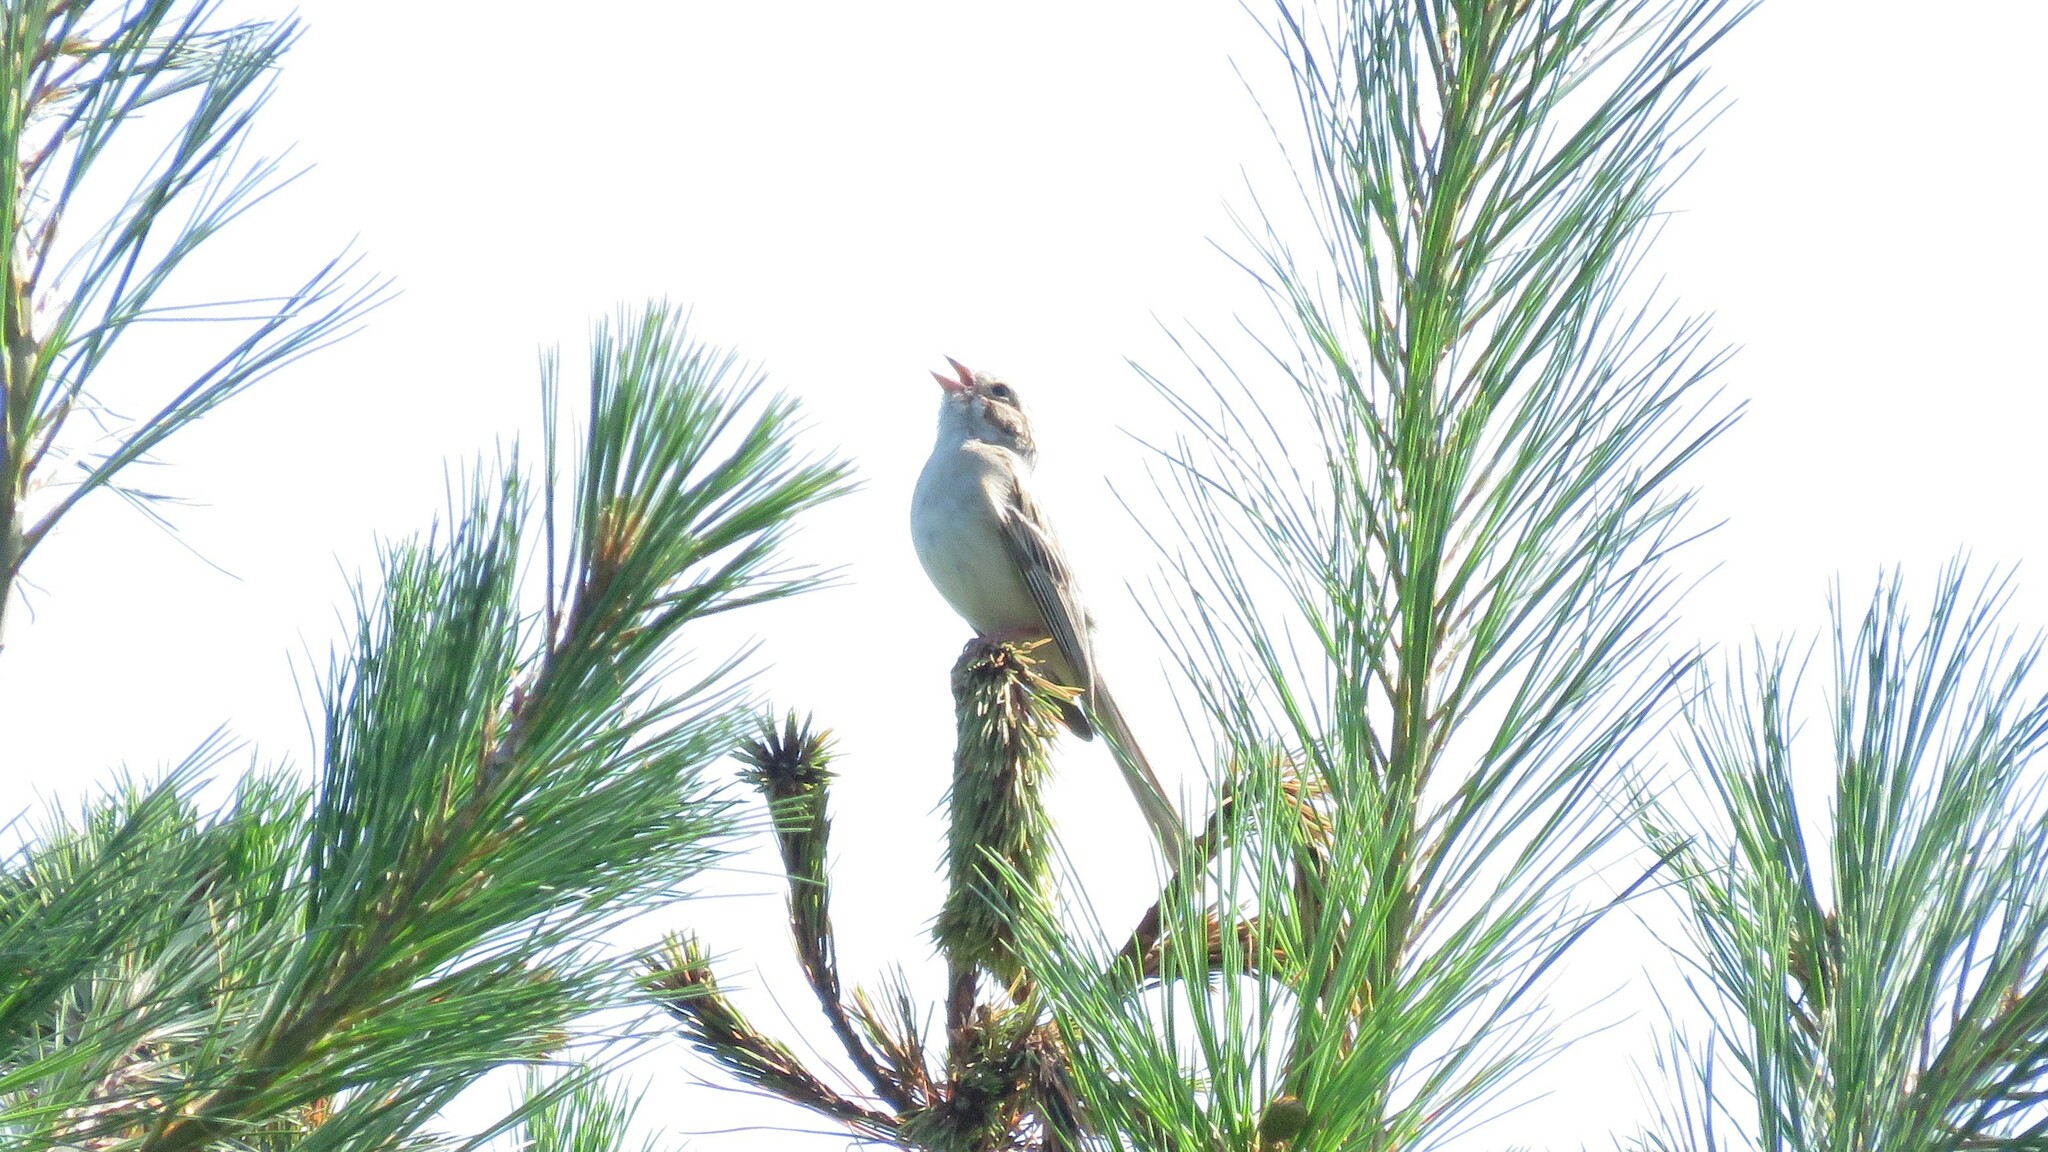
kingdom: Animalia
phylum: Chordata
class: Aves
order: Passeriformes
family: Passerellidae
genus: Spizella
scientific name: Spizella pallida
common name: Clay-colored sparrow
